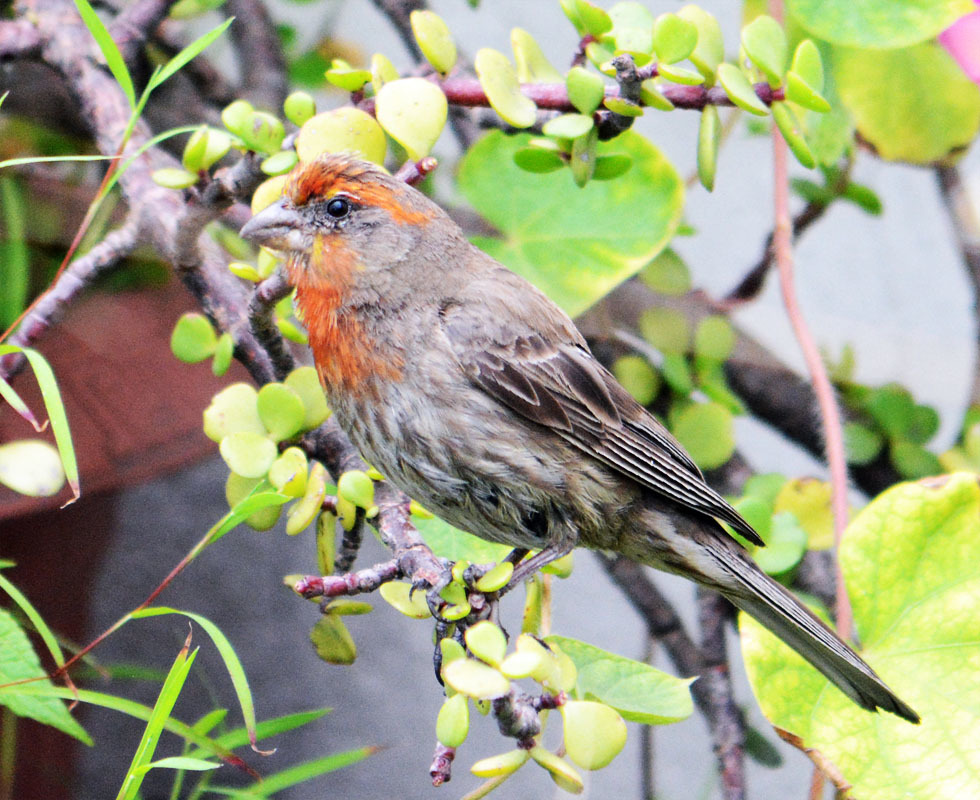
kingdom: Animalia
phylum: Chordata
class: Aves
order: Passeriformes
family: Fringillidae
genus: Haemorhous
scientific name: Haemorhous mexicanus
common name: House finch
